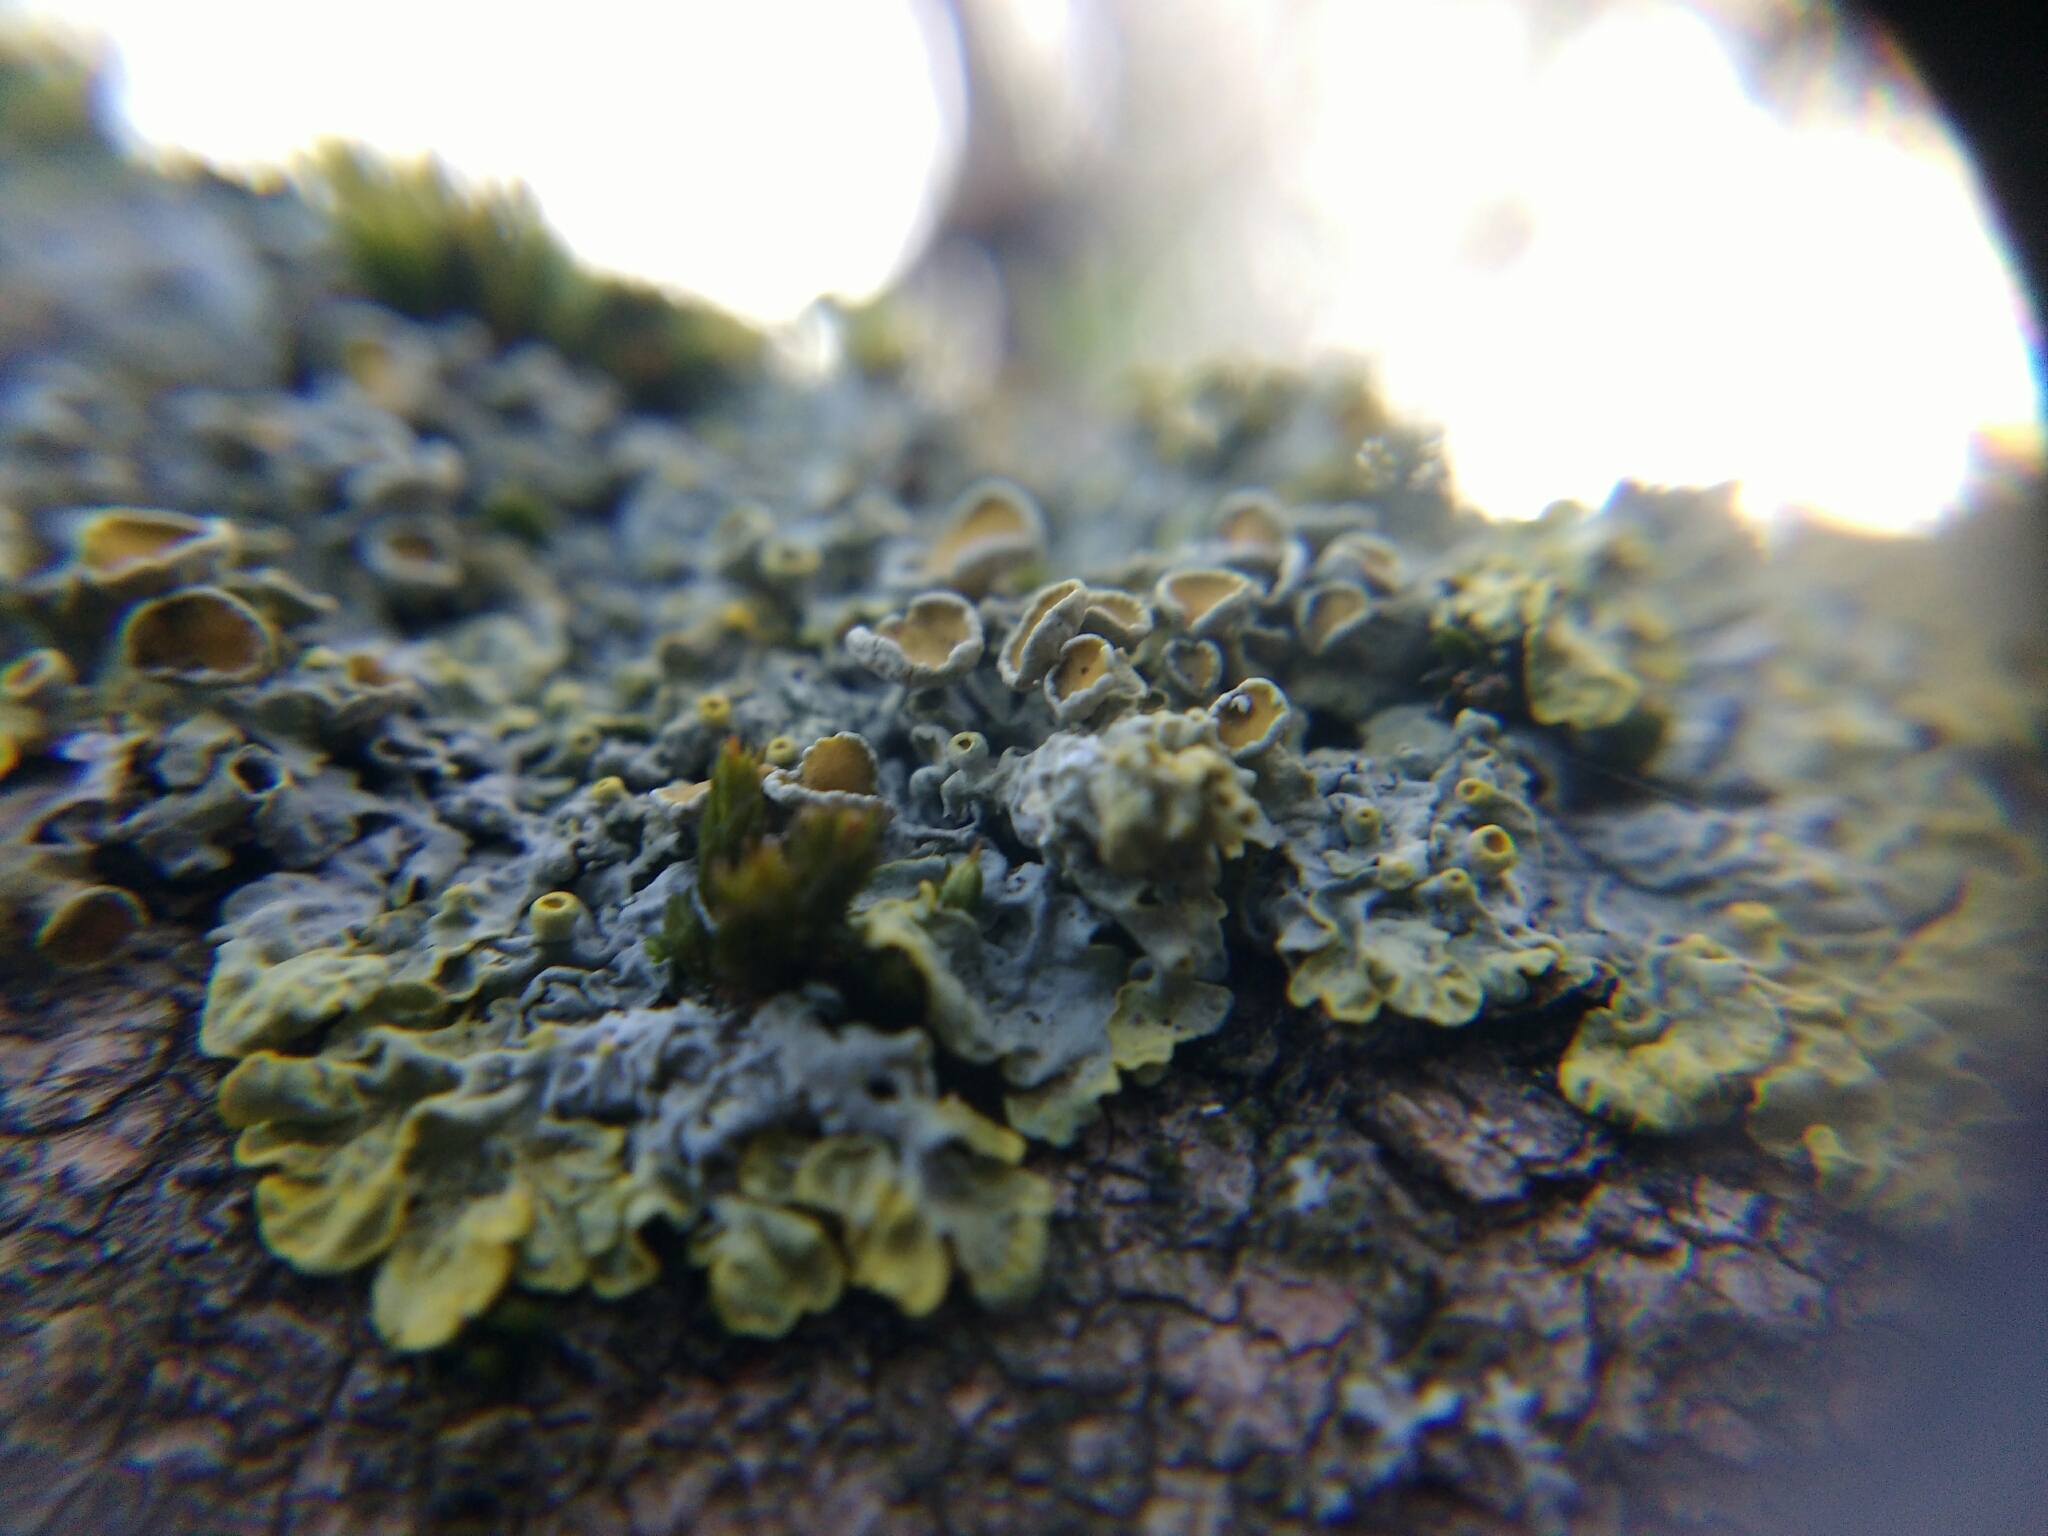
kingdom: Fungi
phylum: Ascomycota
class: Lecanoromycetes
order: Teloschistales
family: Teloschistaceae
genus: Xanthoria
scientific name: Xanthoria parietina
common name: Common orange lichen
